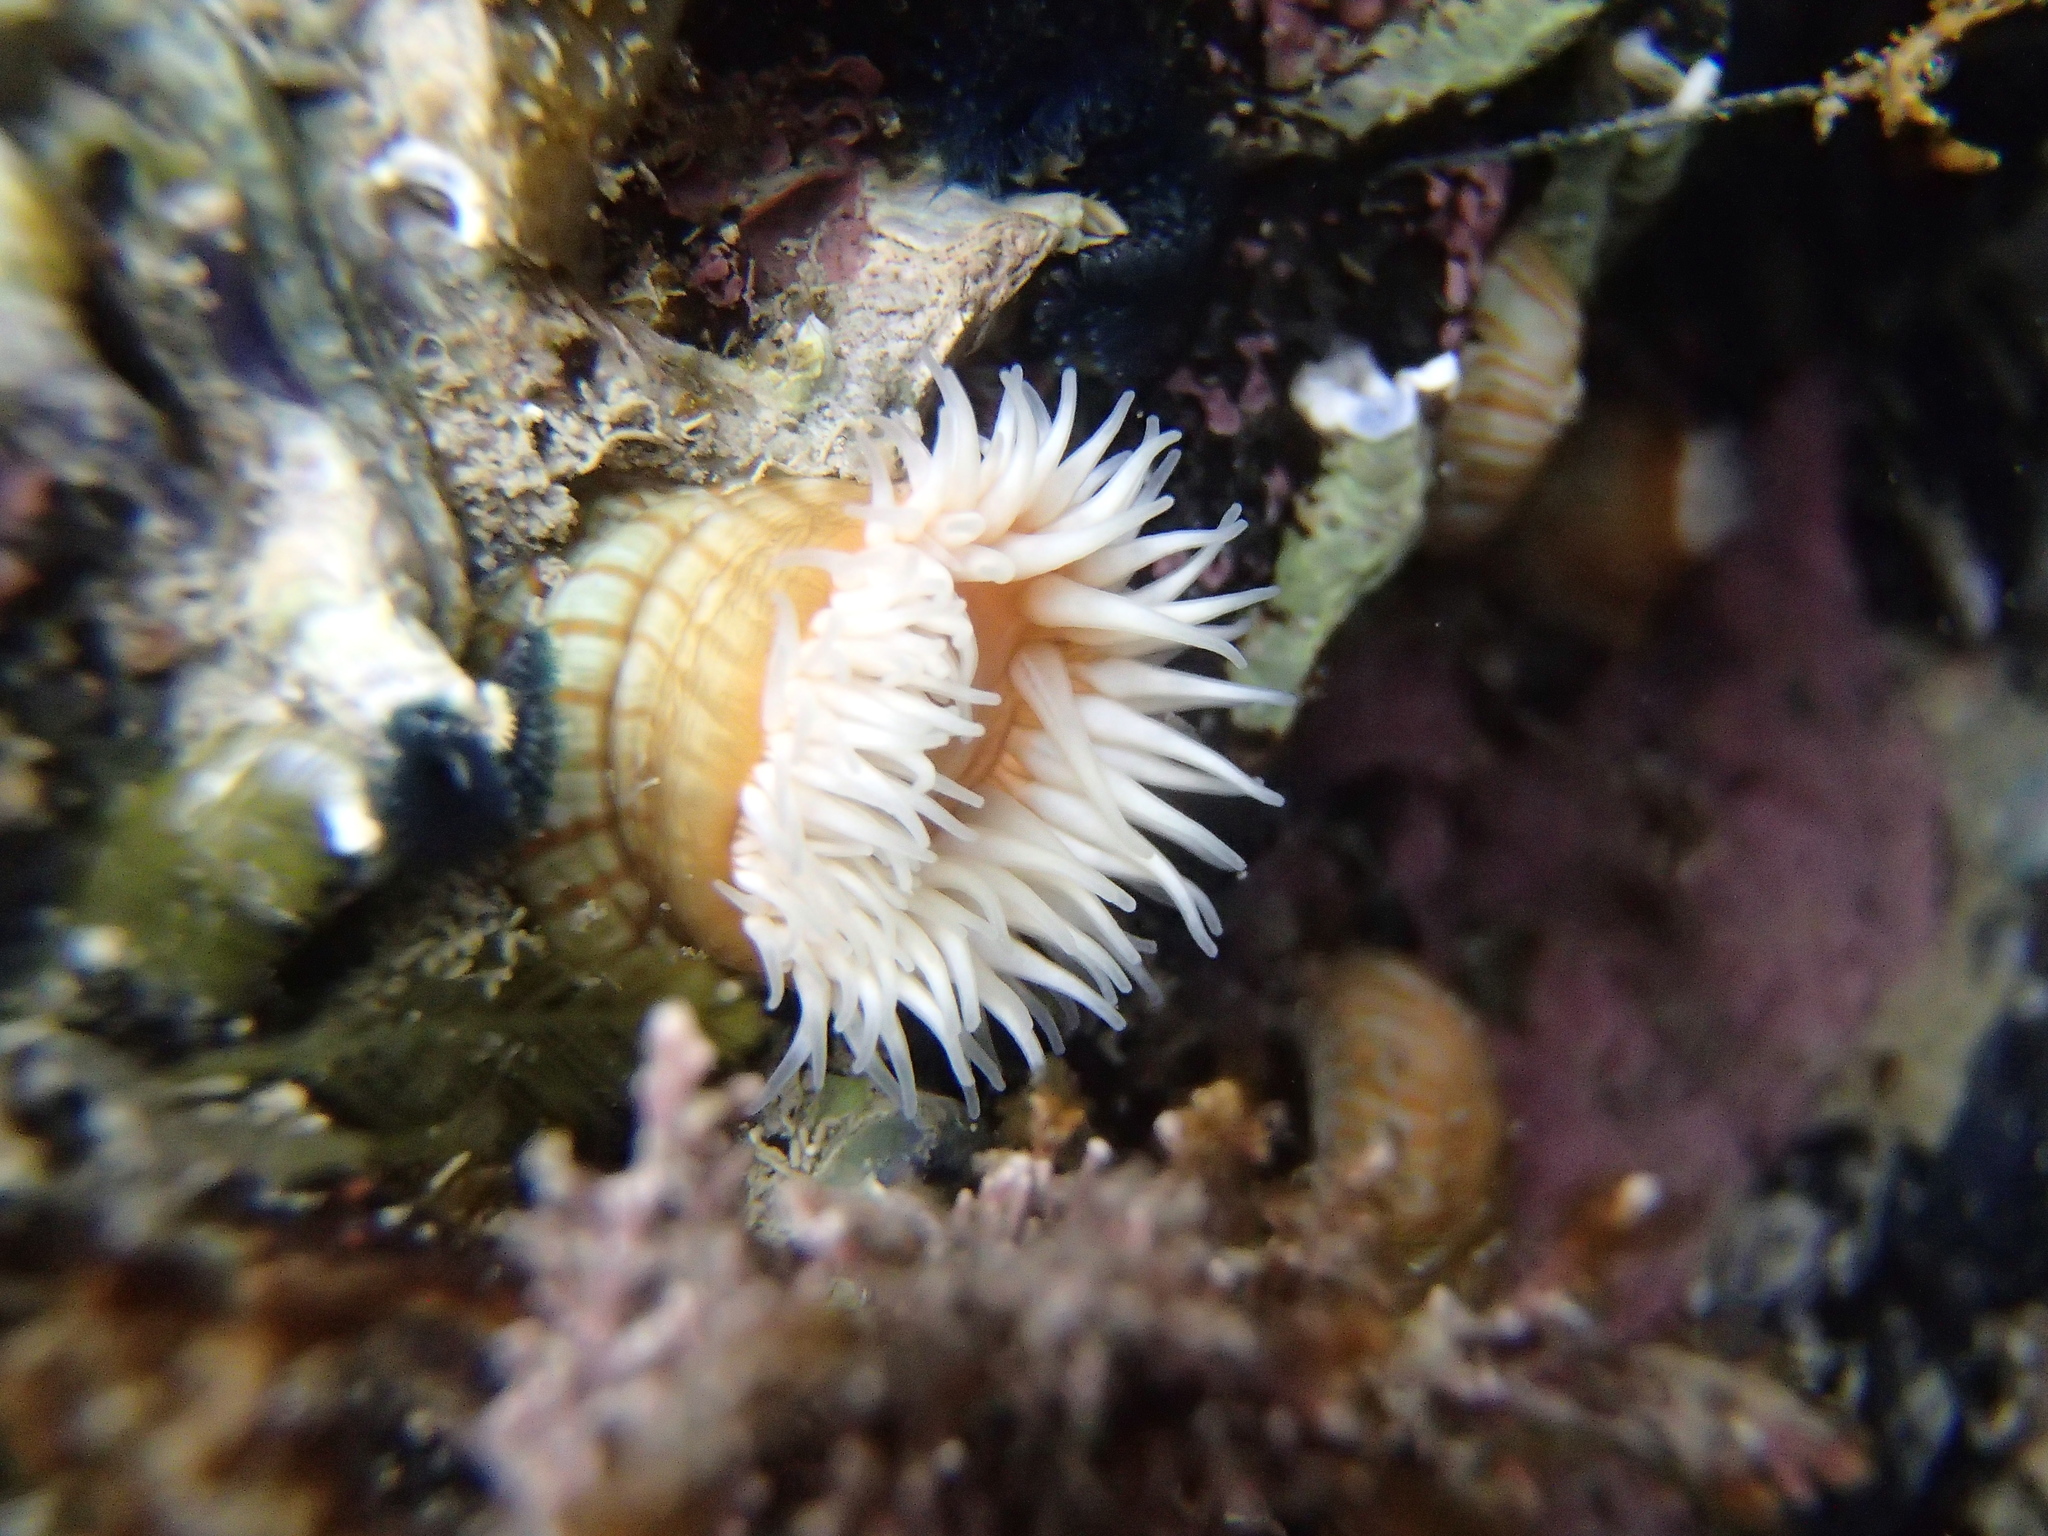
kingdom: Animalia
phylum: Cnidaria
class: Anthozoa
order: Actiniaria
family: Sagartiidae
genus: Anthothoe
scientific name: Anthothoe albocincta
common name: Orange striped anemone
